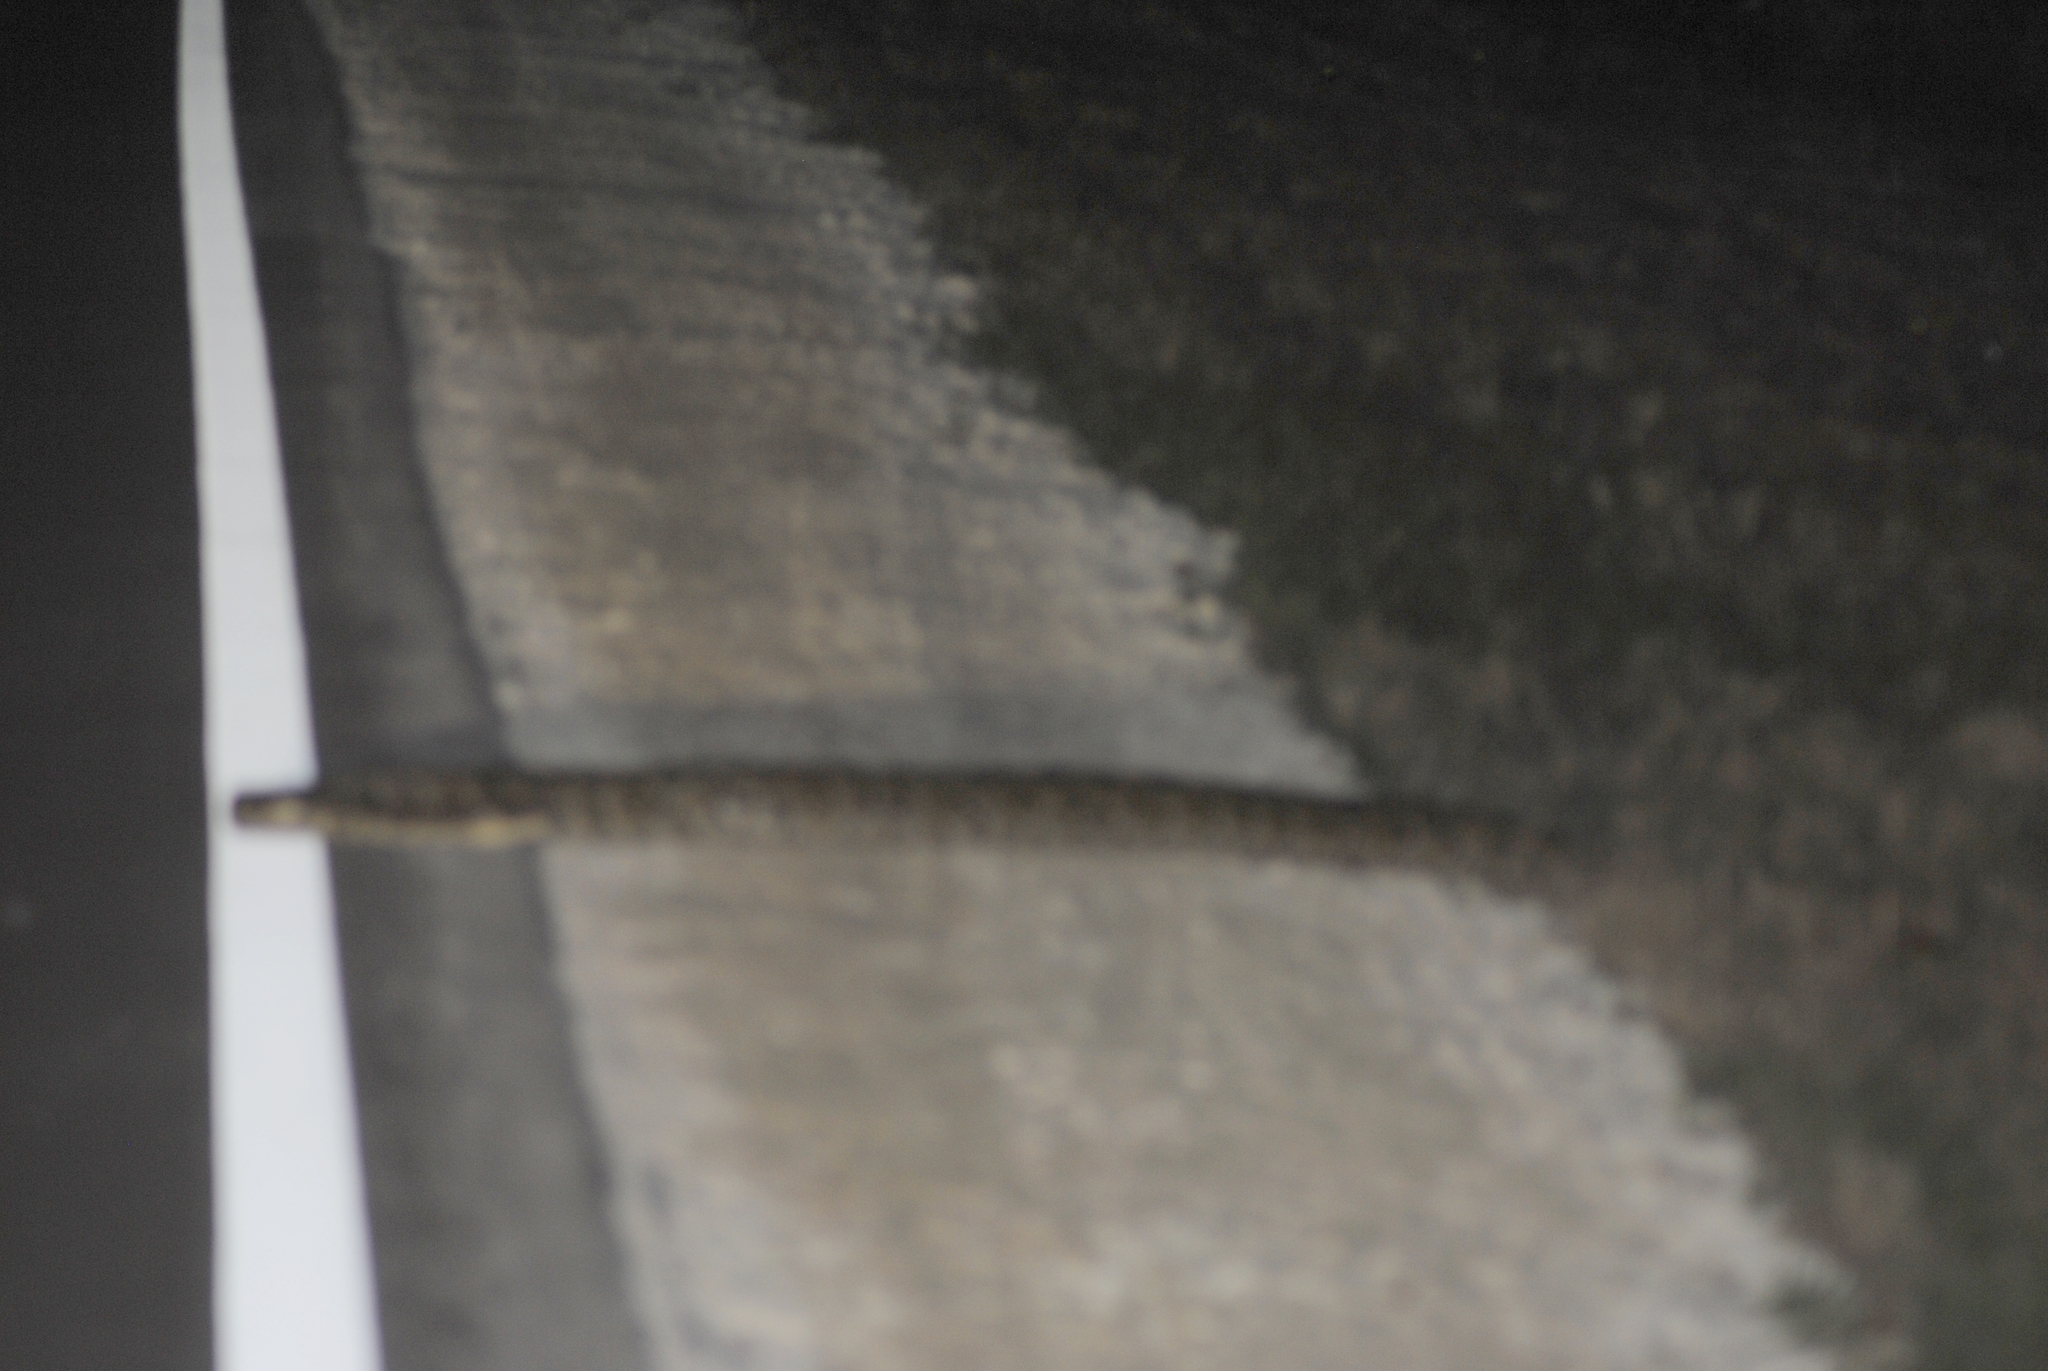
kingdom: Animalia
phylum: Chordata
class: Squamata
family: Pythonidae
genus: Python
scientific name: Python bivittatus
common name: Burmese python
